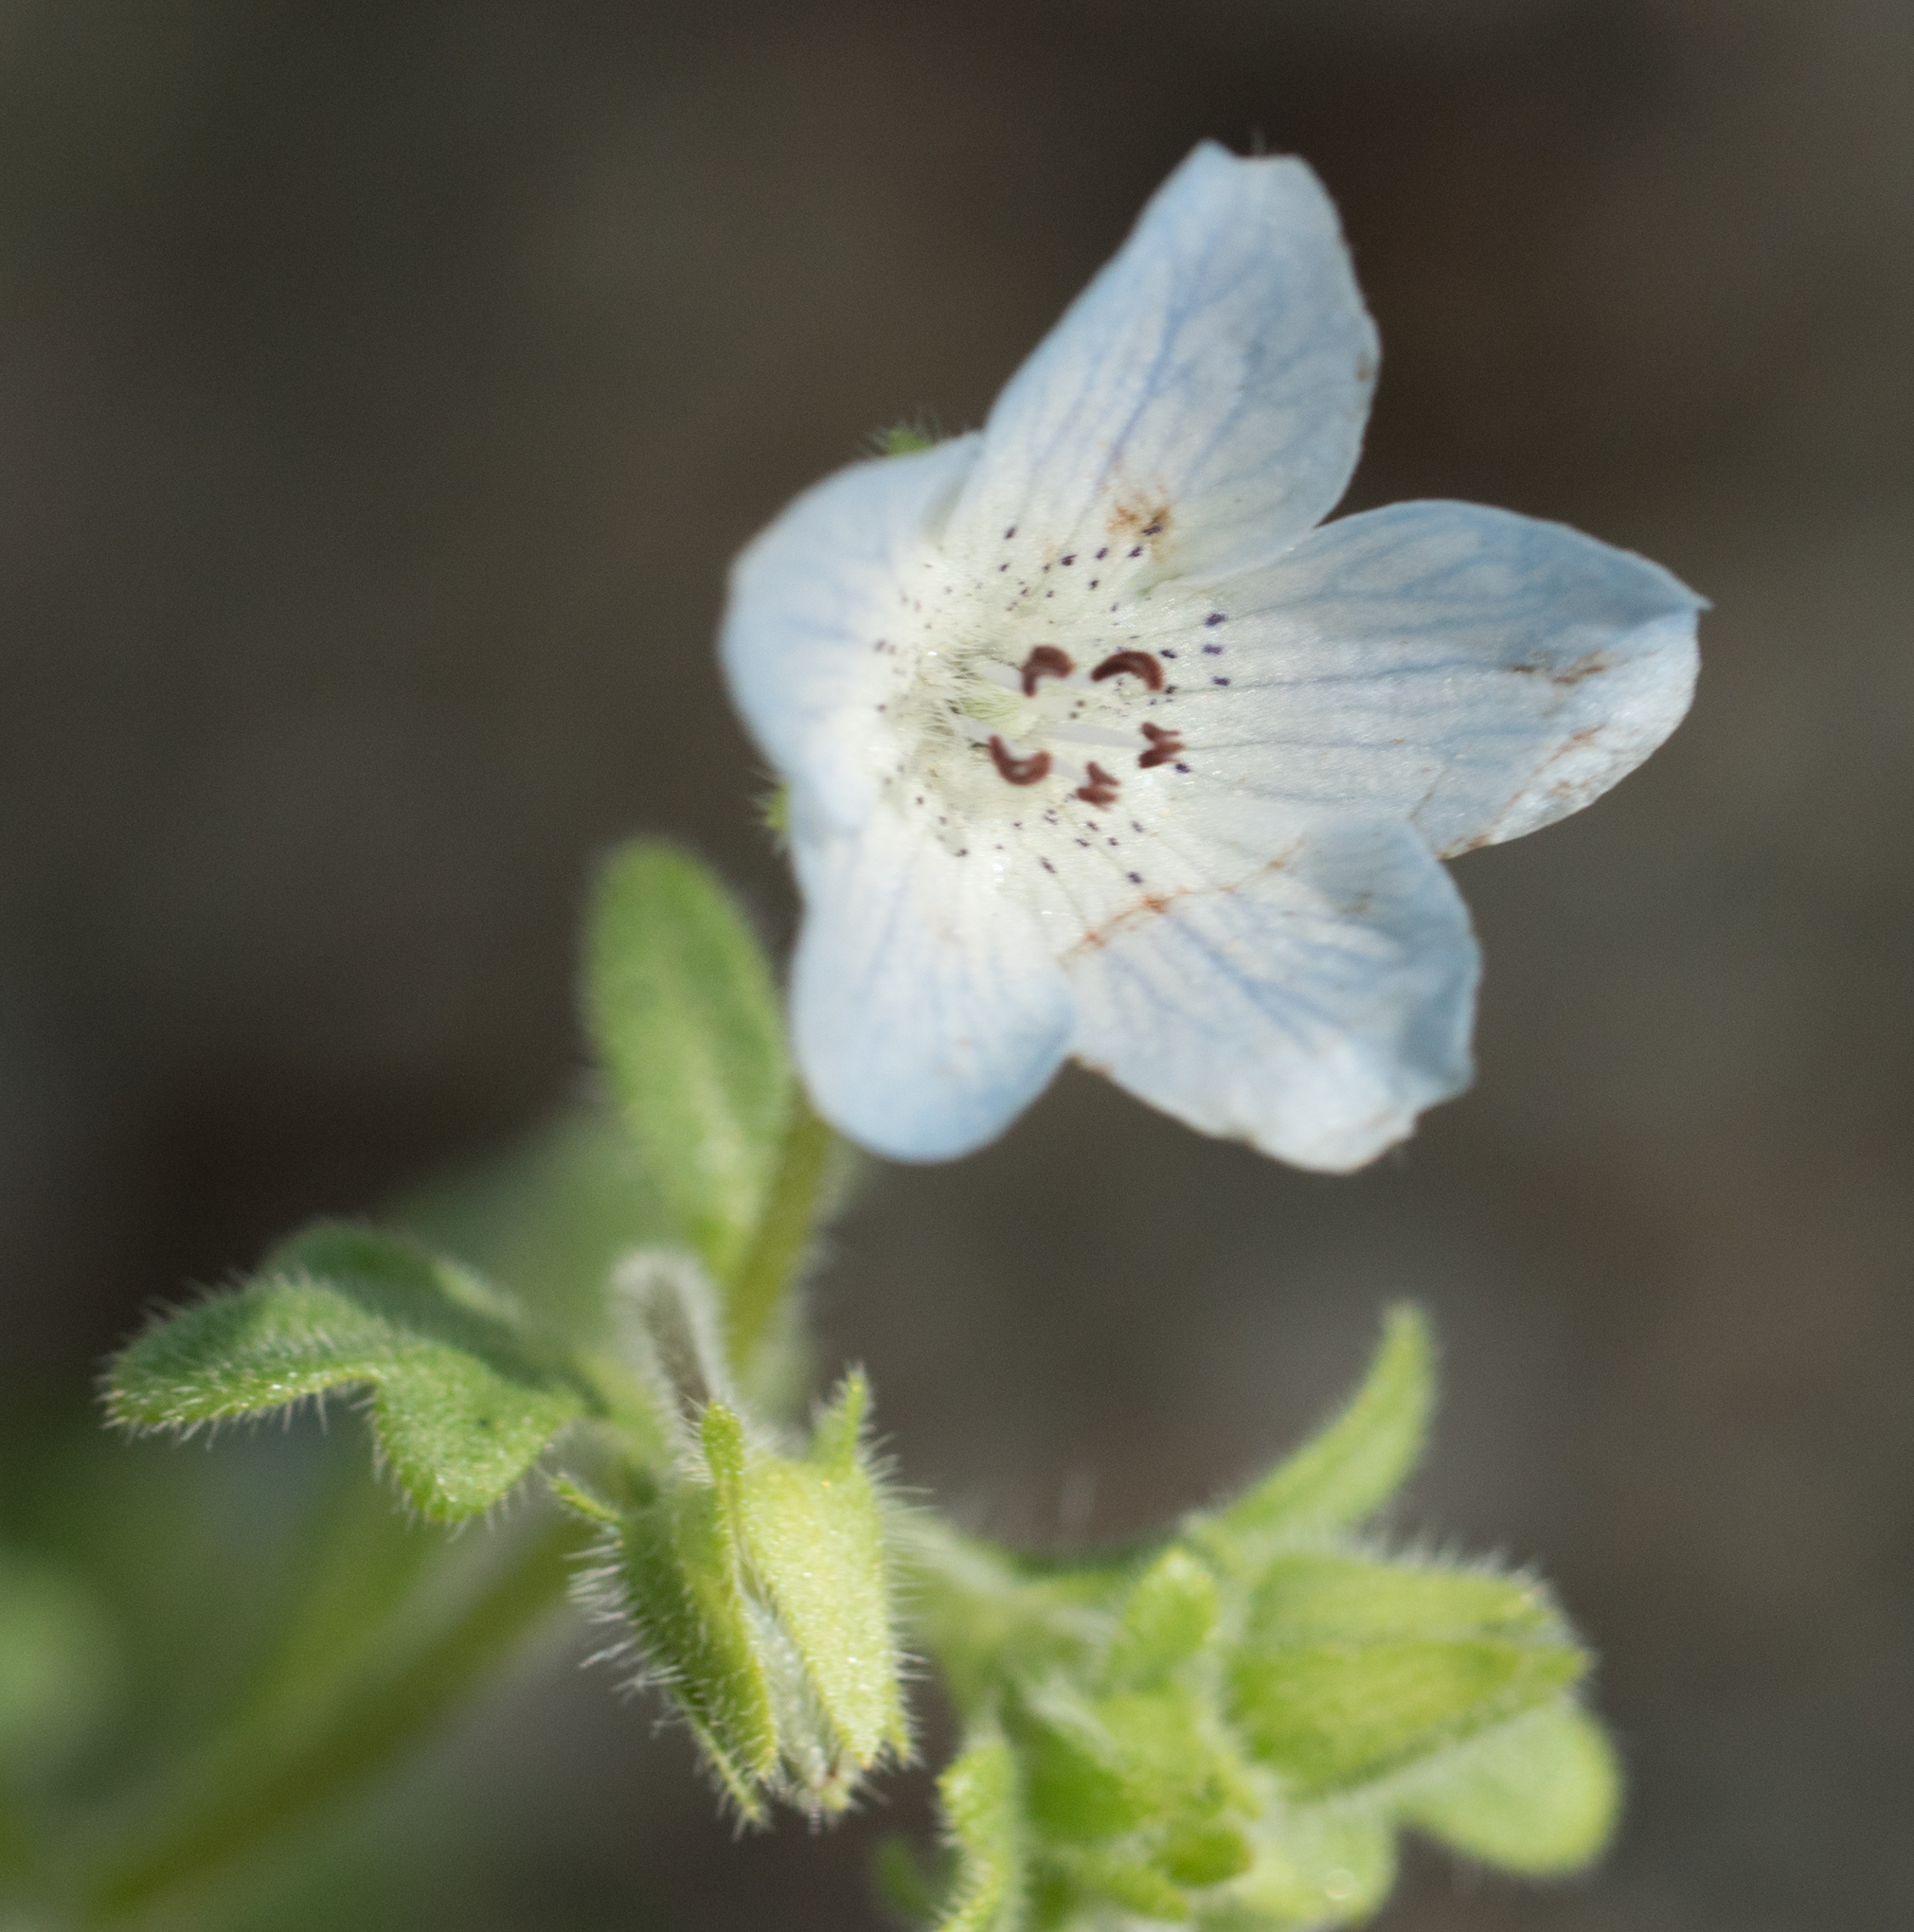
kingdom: Plantae
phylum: Tracheophyta
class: Magnoliopsida
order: Boraginales
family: Hydrophyllaceae
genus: Nemophila
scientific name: Nemophila menziesii
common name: Baby's-blue-eyes
